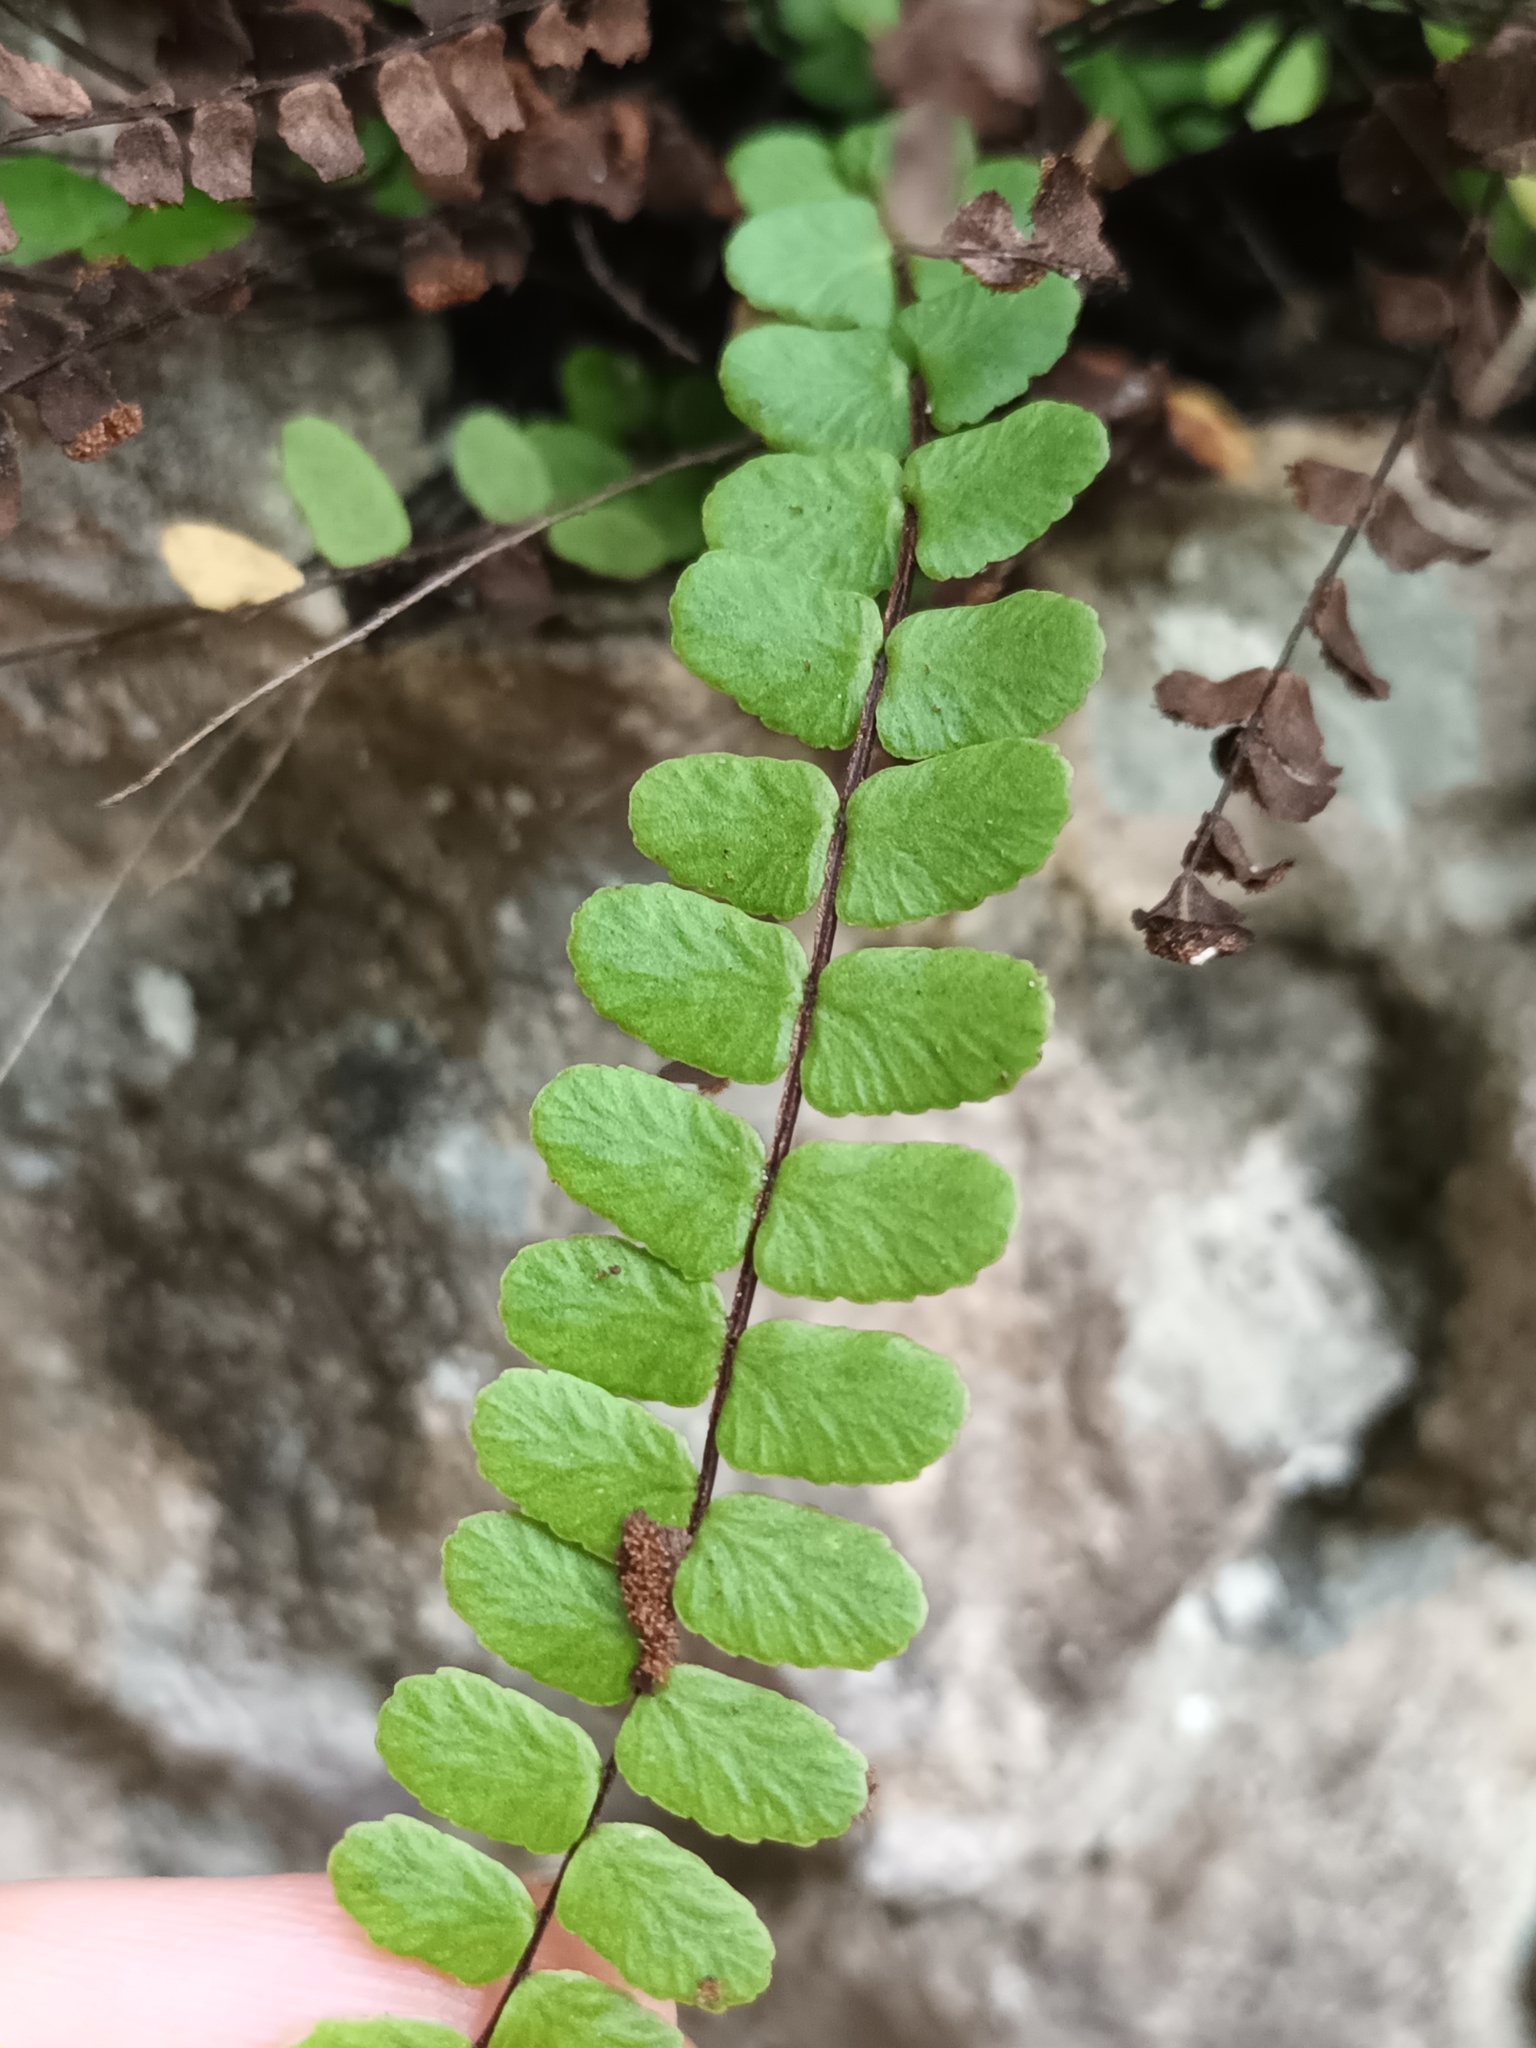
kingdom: Plantae
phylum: Tracheophyta
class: Polypodiopsida
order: Polypodiales
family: Aspleniaceae
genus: Asplenium
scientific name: Asplenium trichomanes
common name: Maidenhair spleenwort
